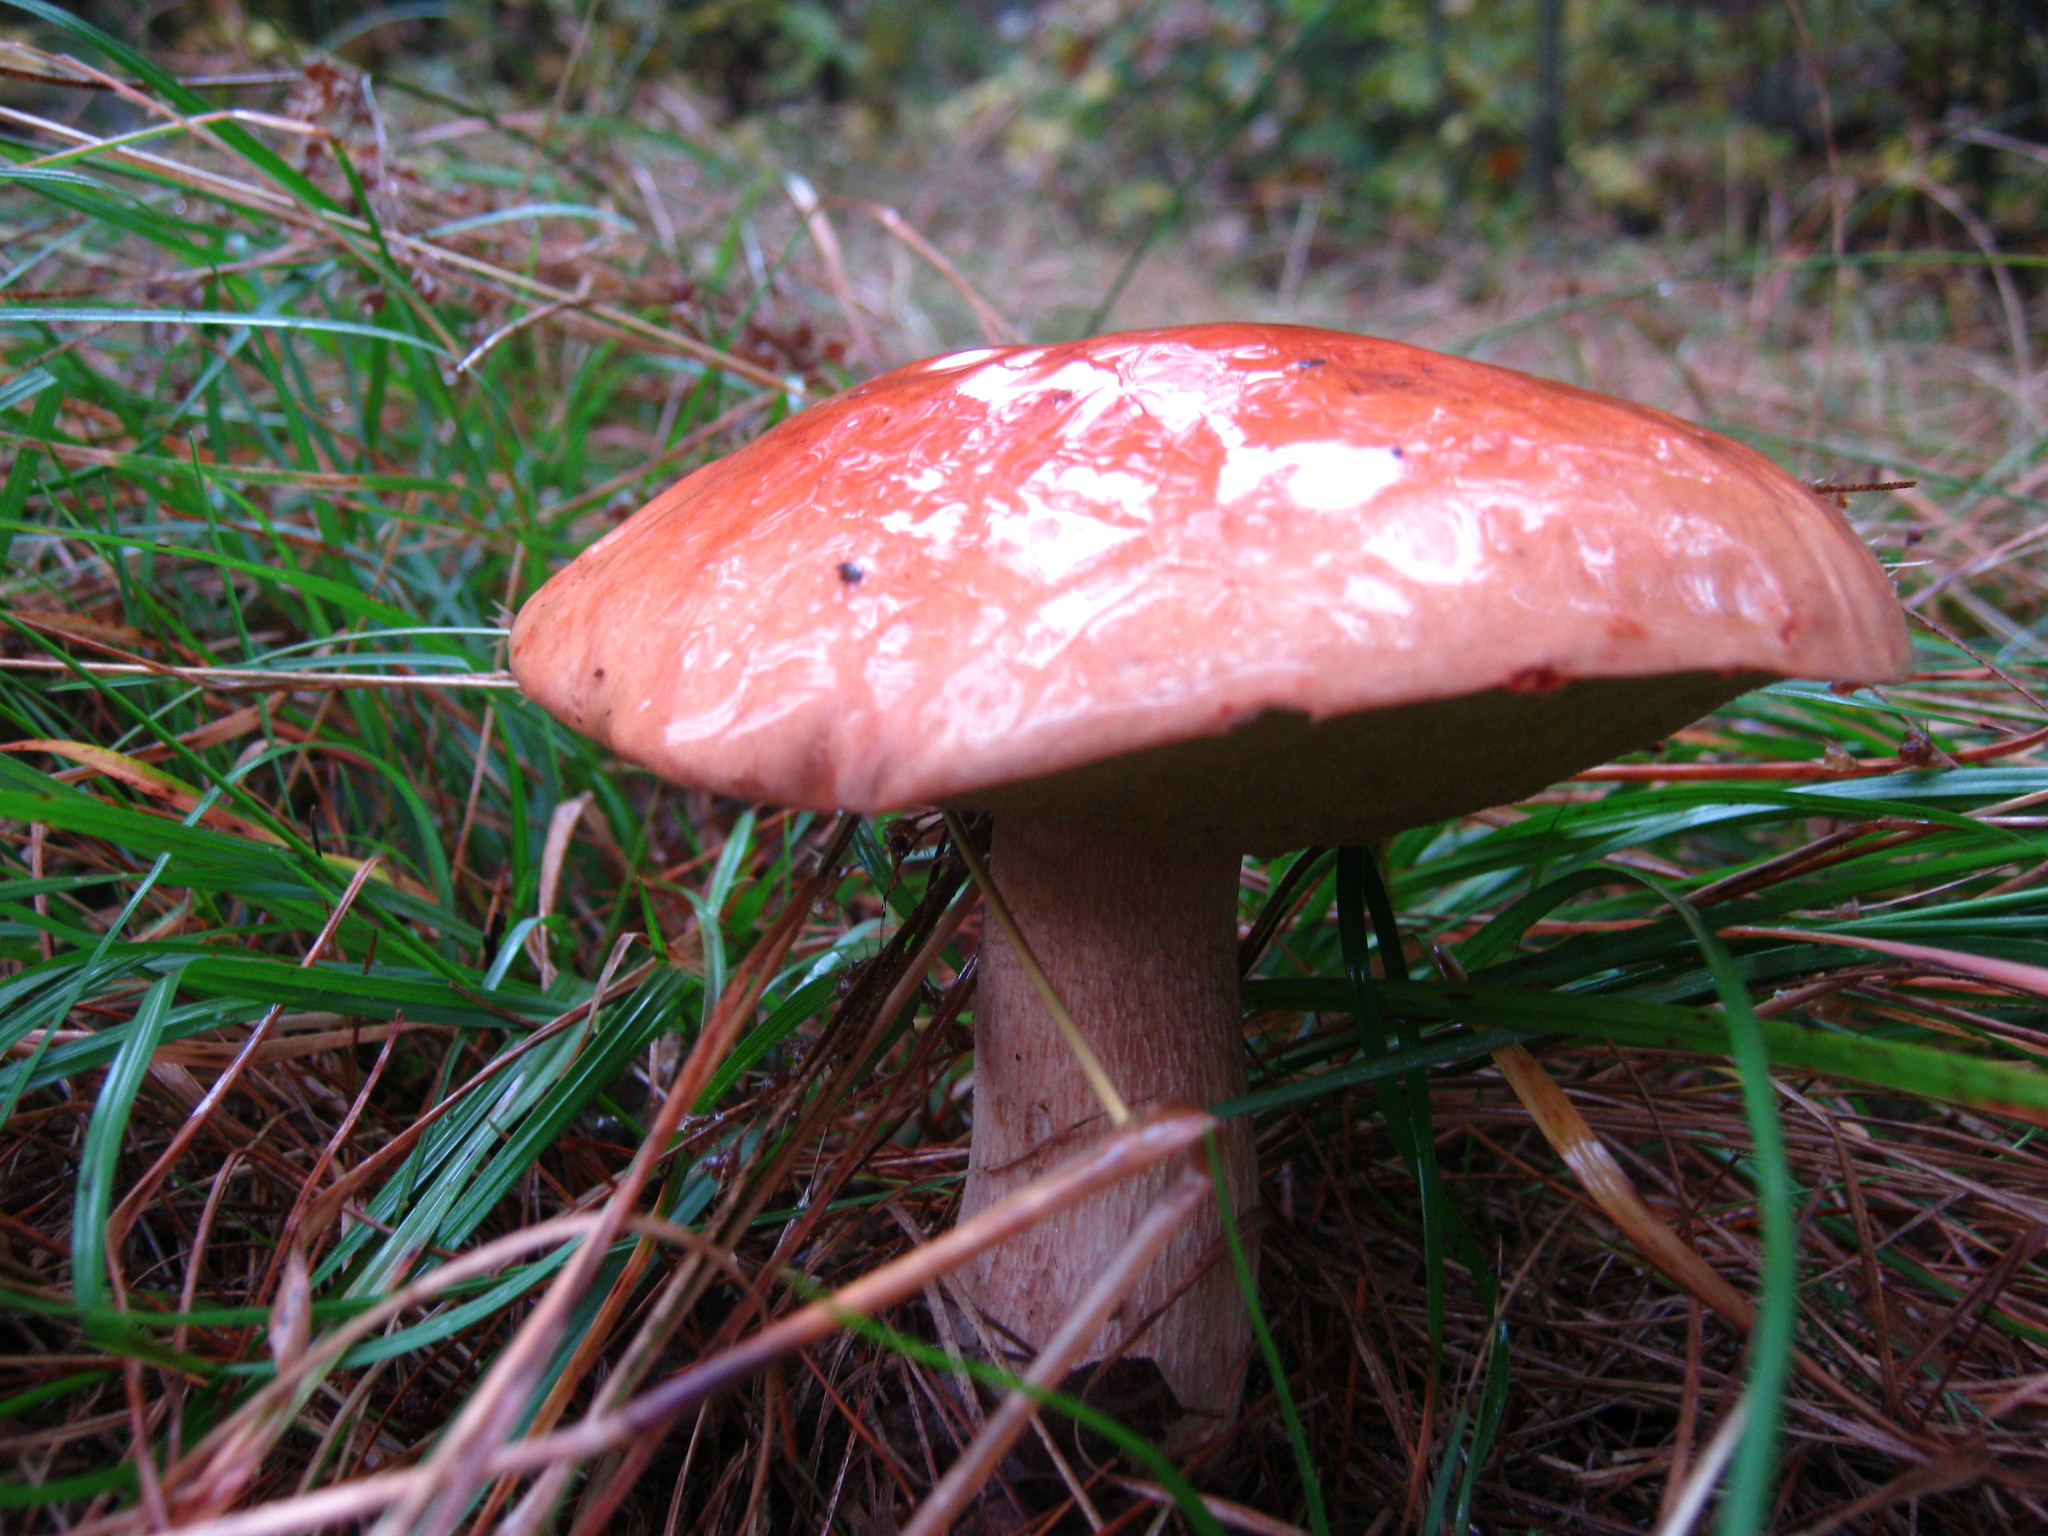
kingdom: Fungi
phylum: Basidiomycota
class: Agaricomycetes
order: Boletales
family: Boletaceae
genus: Boletus
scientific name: Boletus edulis
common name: Cep
